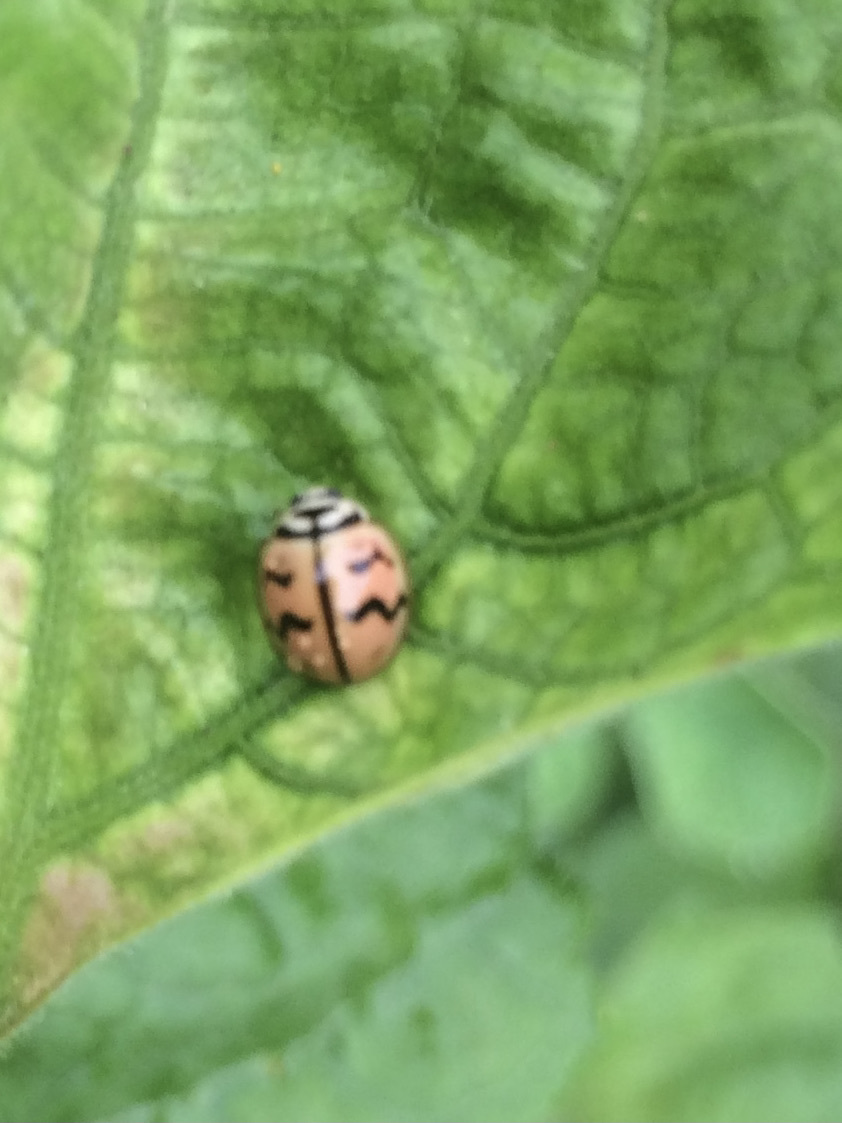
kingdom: Animalia
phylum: Arthropoda
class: Insecta
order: Coleoptera
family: Coccinellidae
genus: Cheilomenes
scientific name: Cheilomenes sexmaculata
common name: Ladybird beetle
